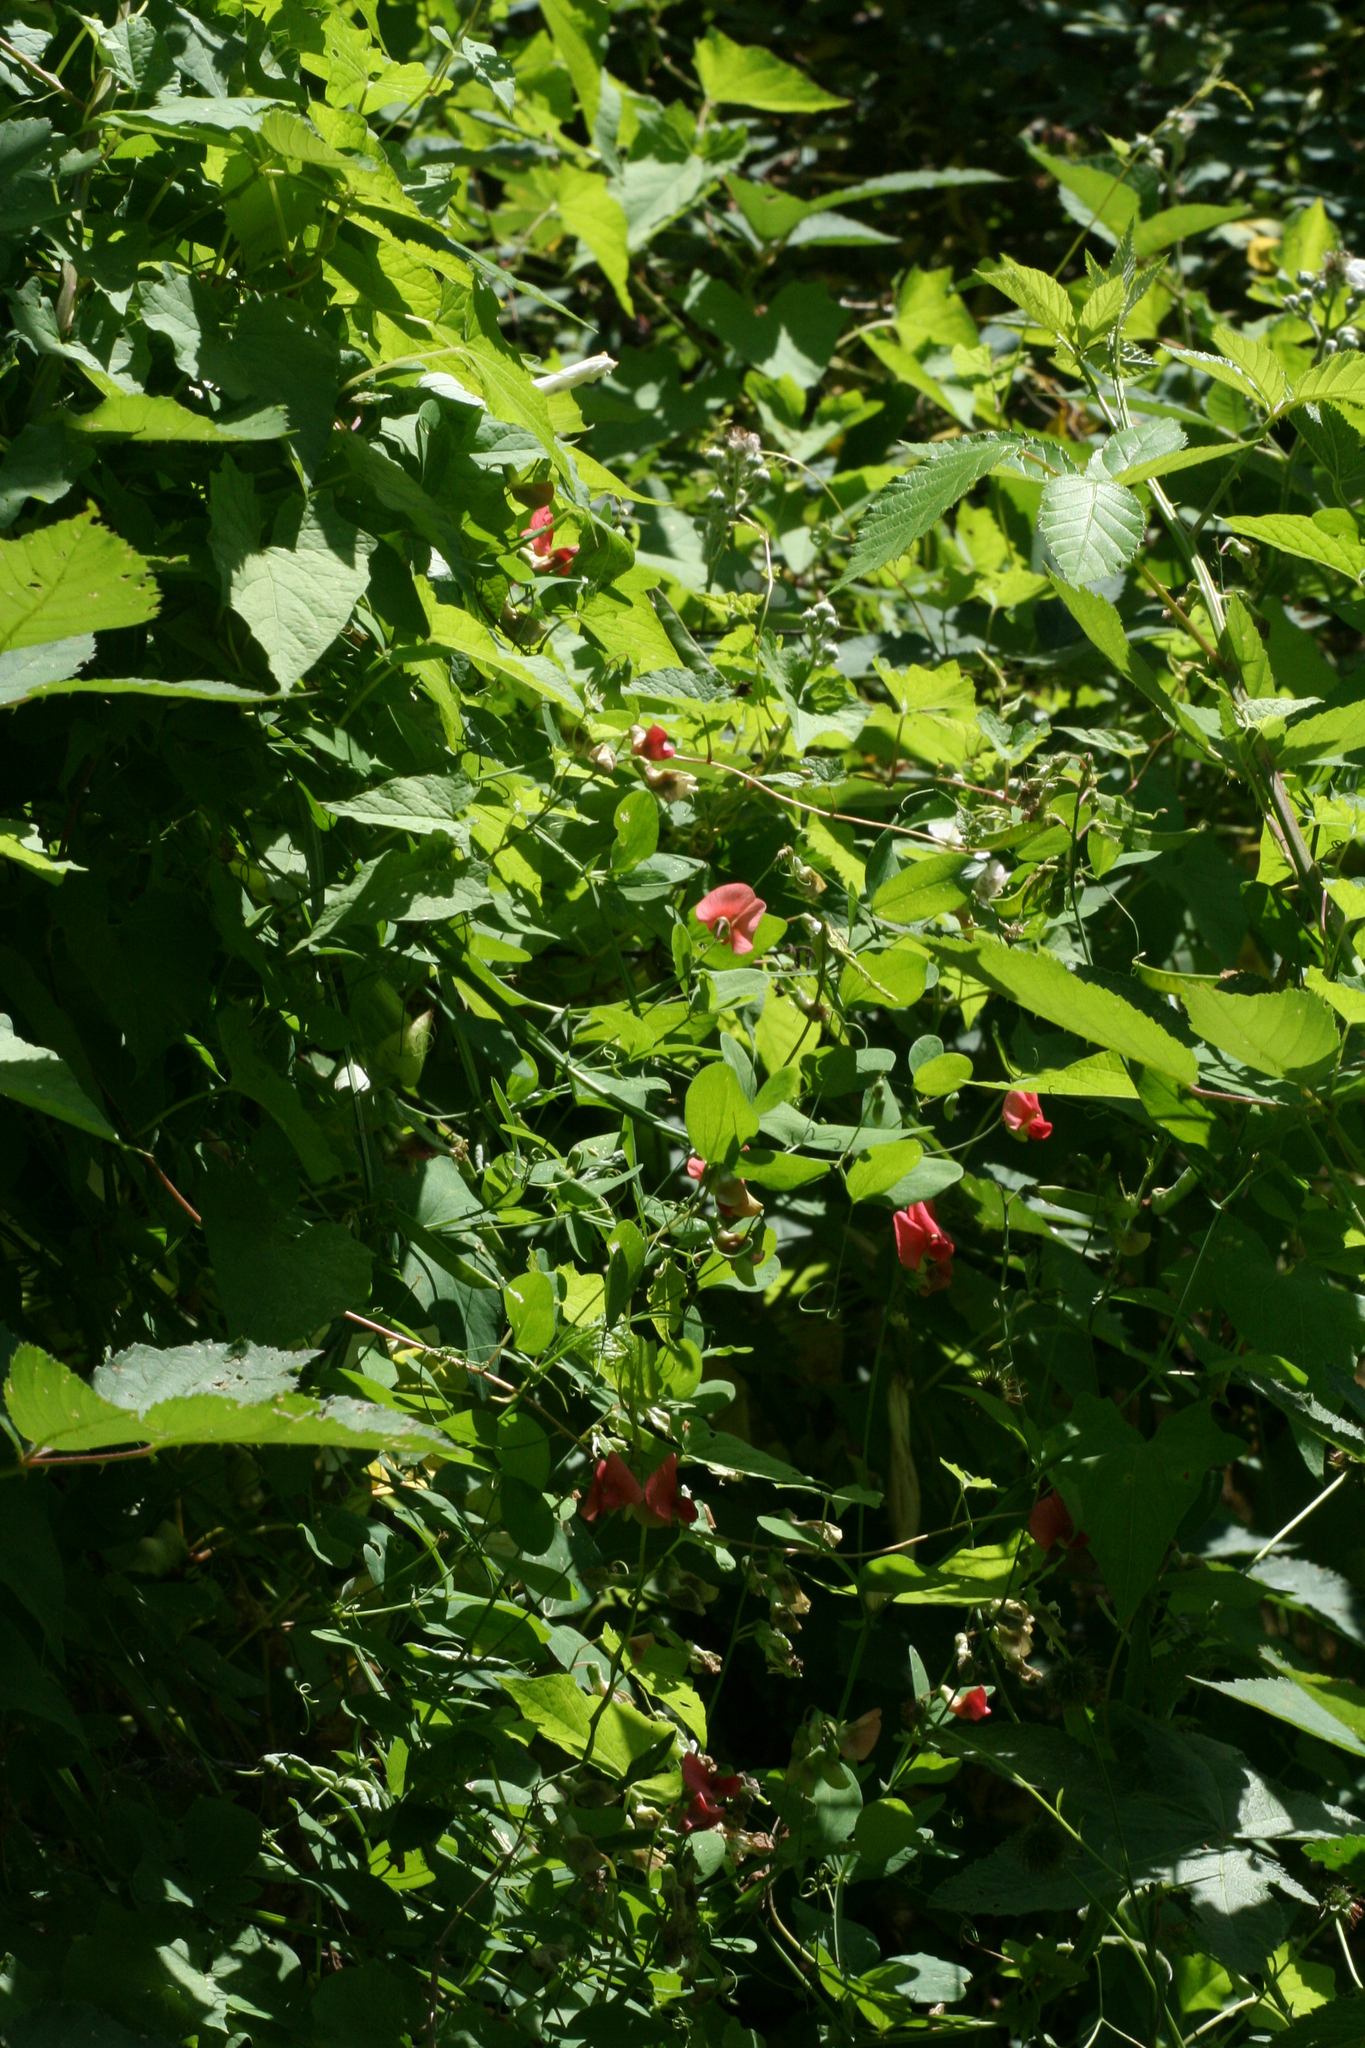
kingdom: Plantae
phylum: Tracheophyta
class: Magnoliopsida
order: Fabales
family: Fabaceae
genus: Lathyrus
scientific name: Lathyrus miniatus
